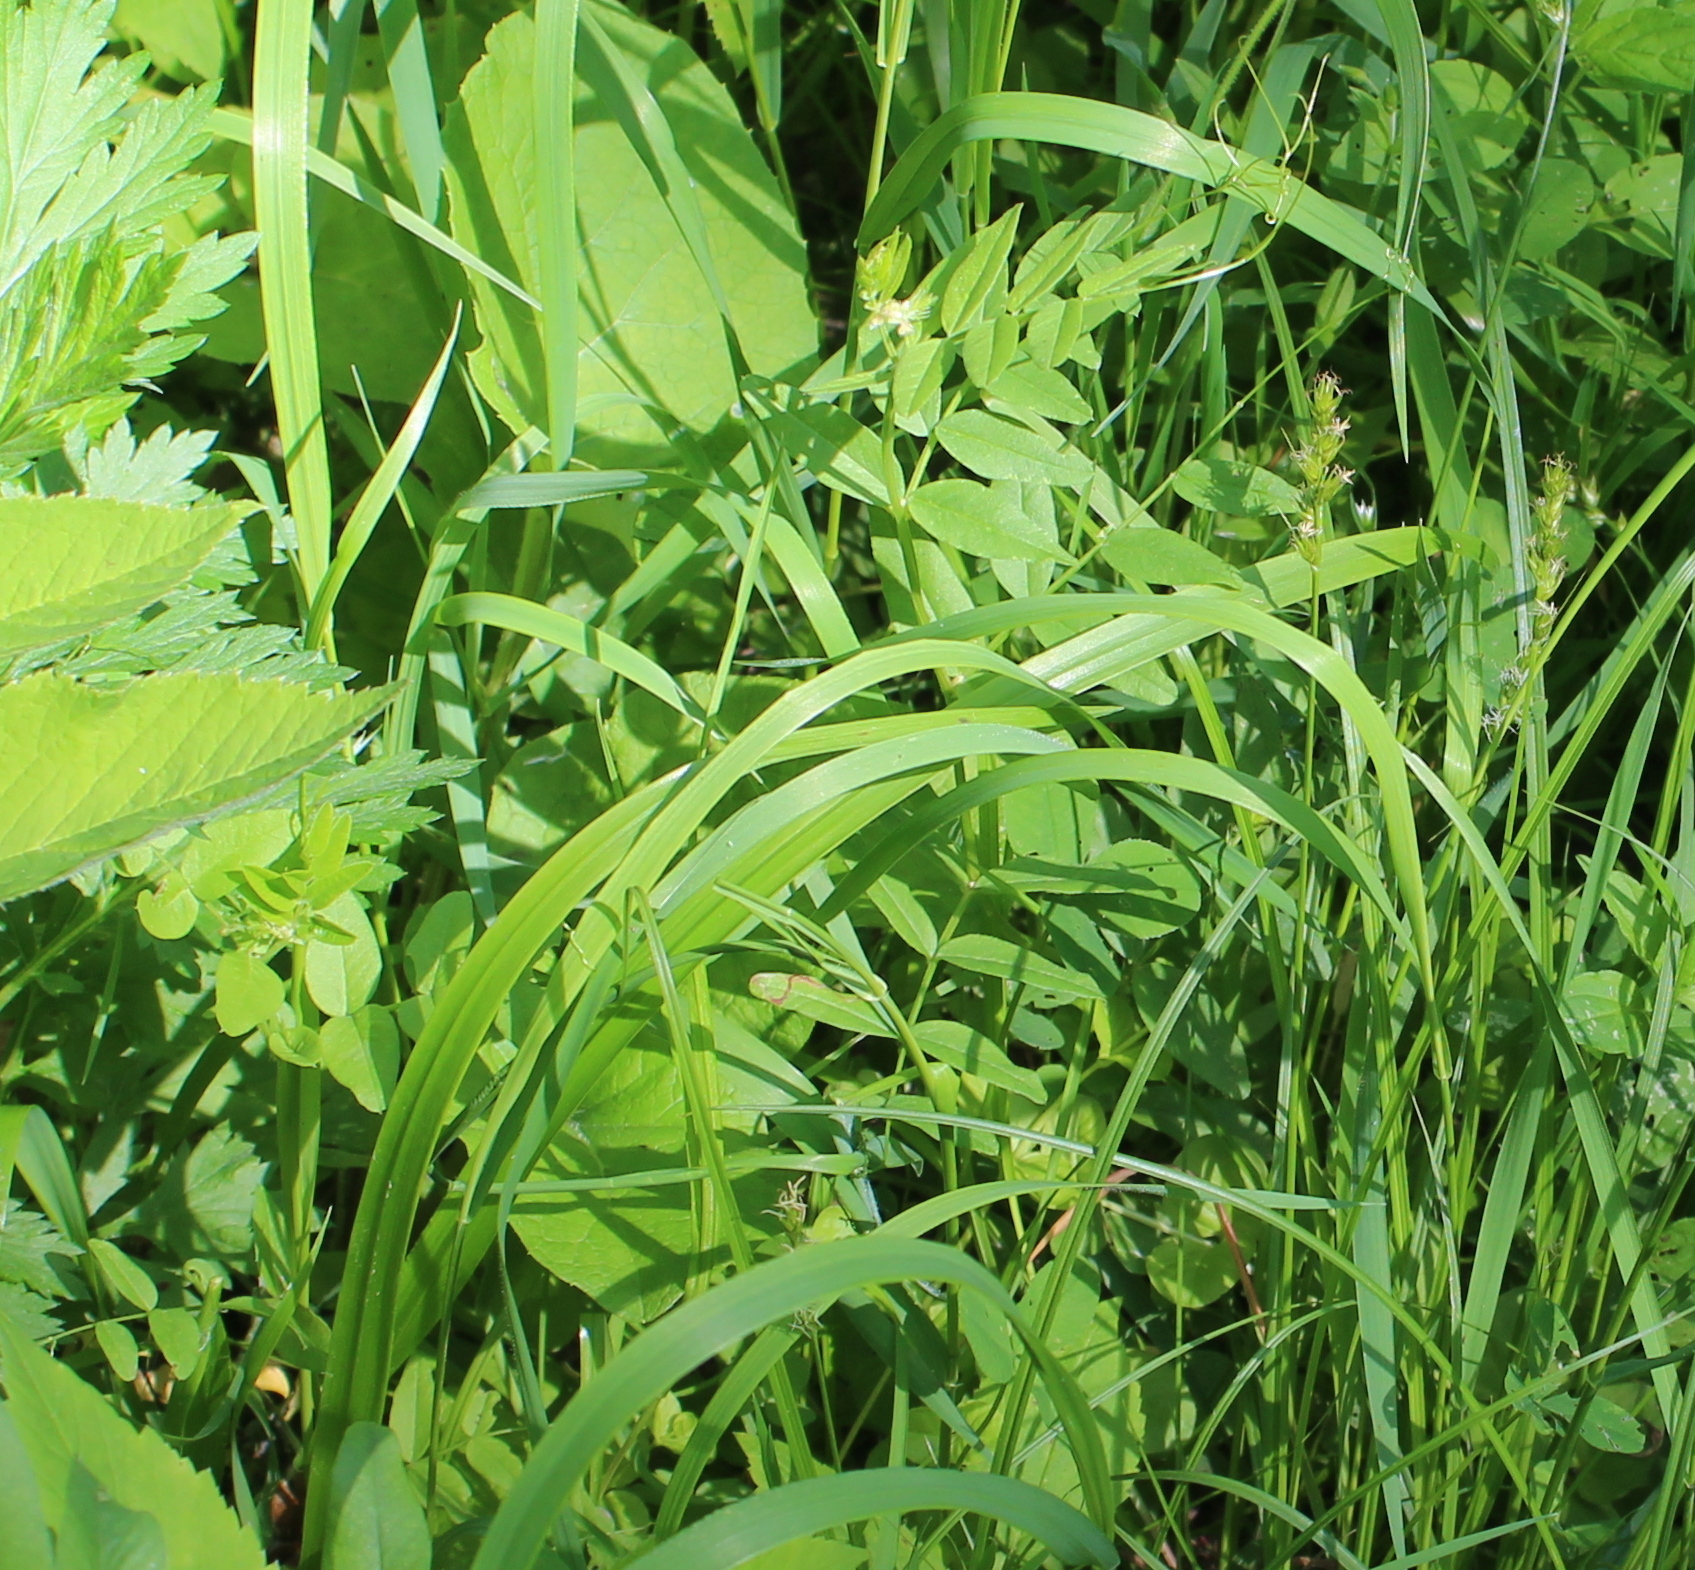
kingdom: Plantae
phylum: Tracheophyta
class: Magnoliopsida
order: Fabales
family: Fabaceae
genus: Vicia
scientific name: Vicia sepium
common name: Bush vetch
